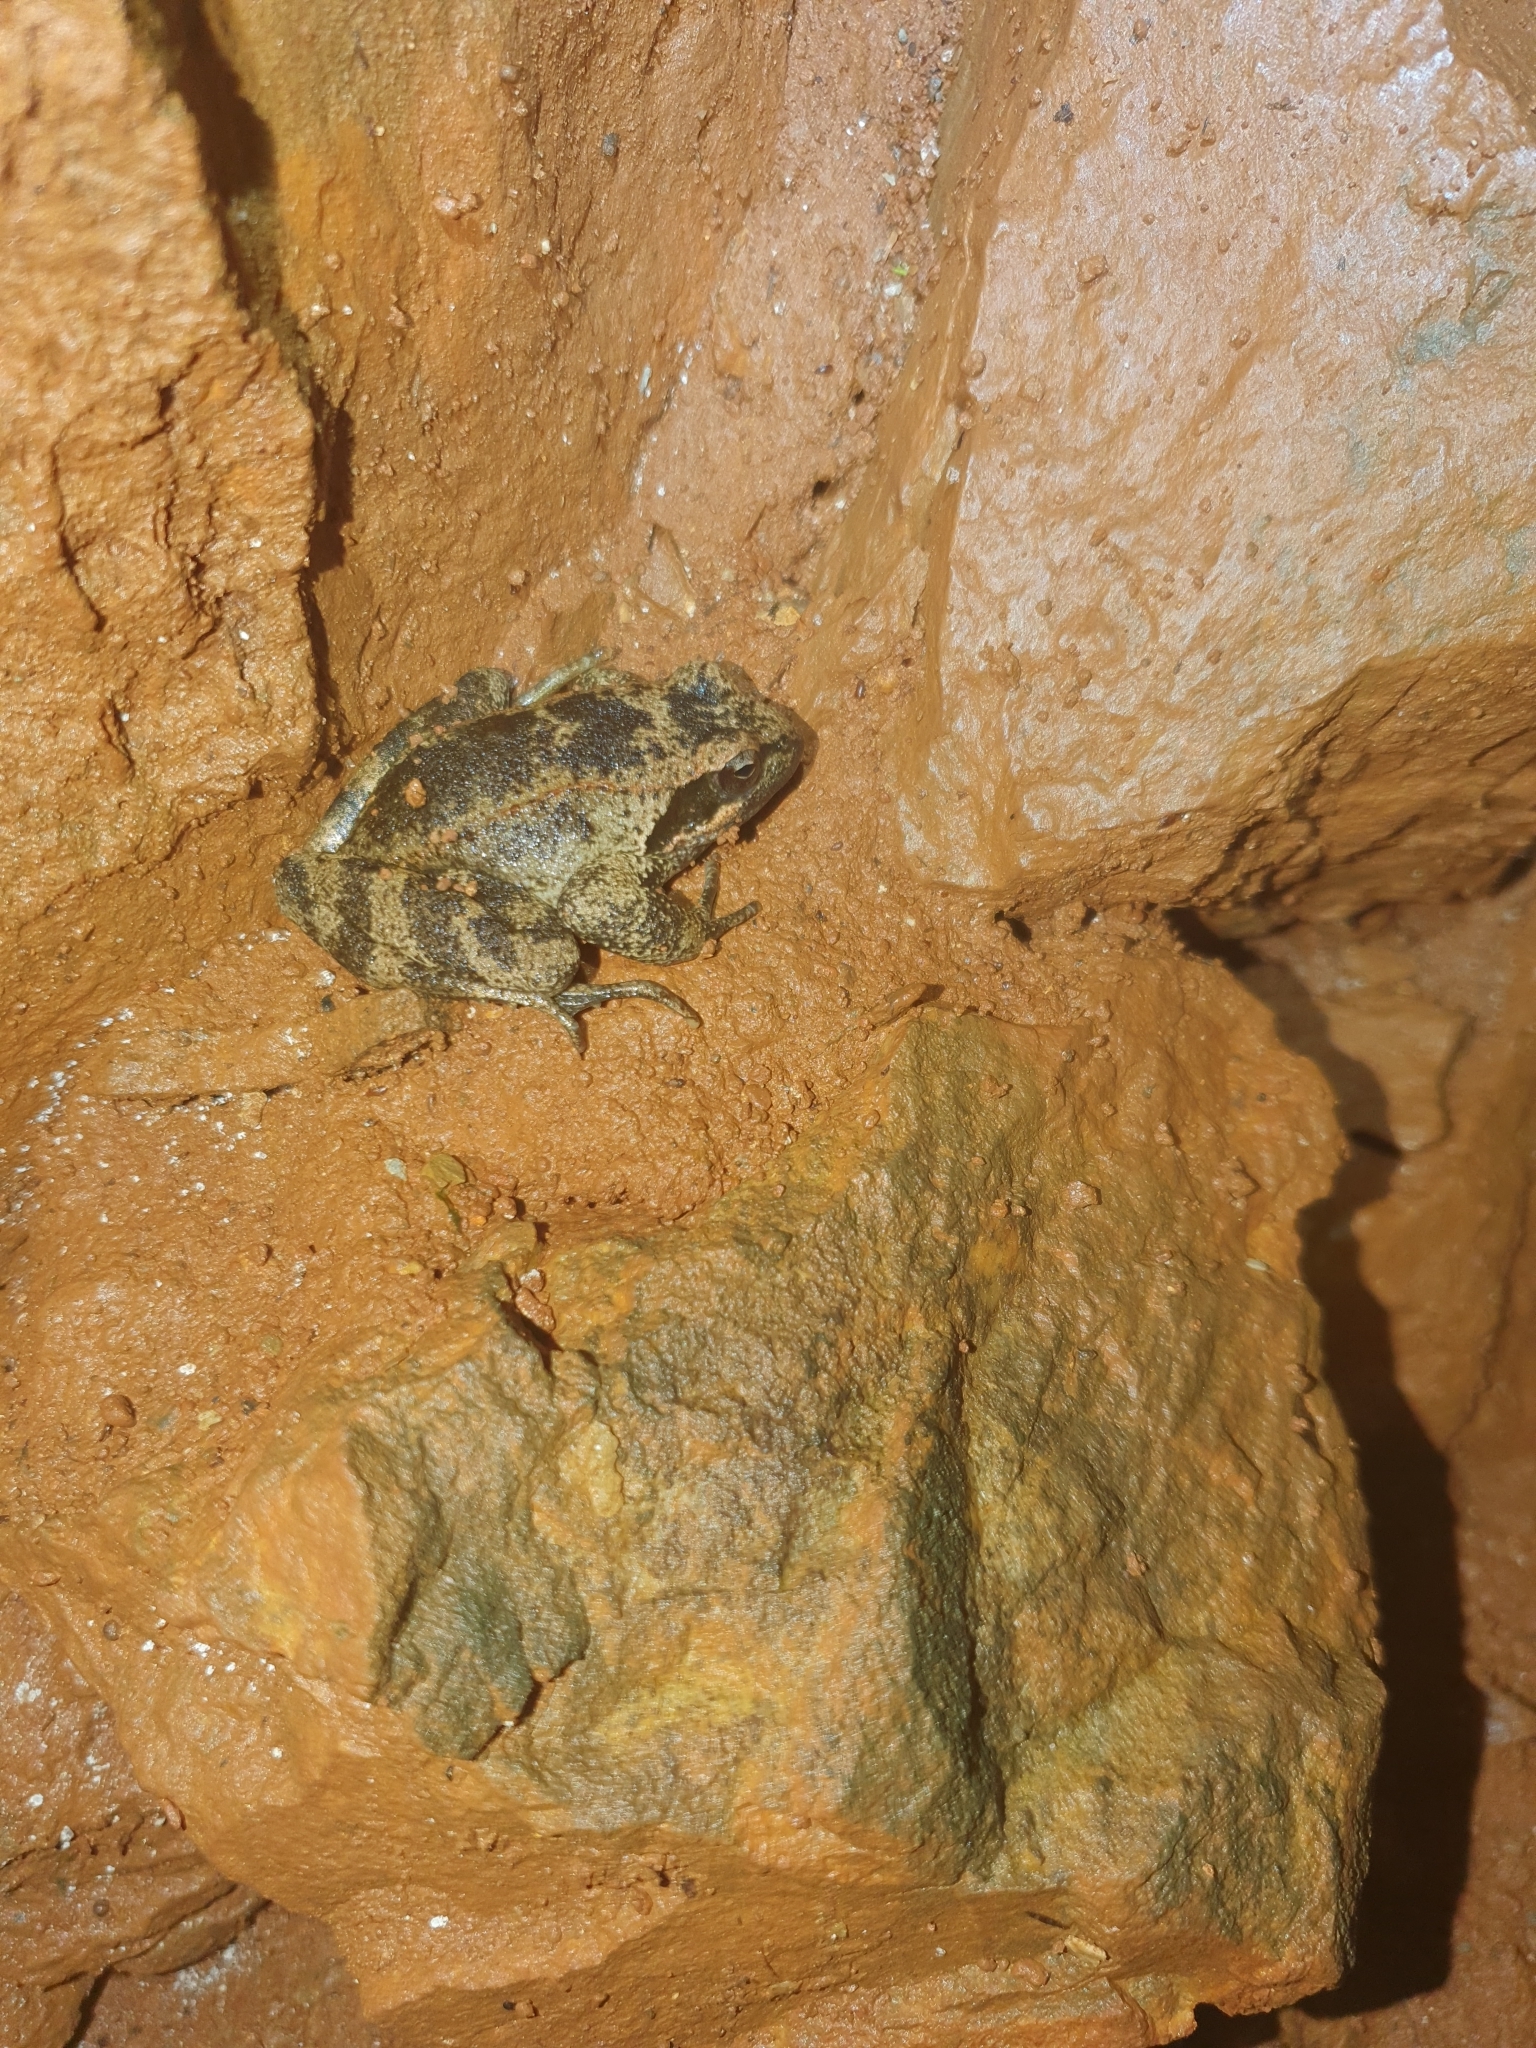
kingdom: Animalia
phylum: Chordata
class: Amphibia
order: Anura
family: Ranidae
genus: Rana
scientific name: Rana italica
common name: Italian stream frog
